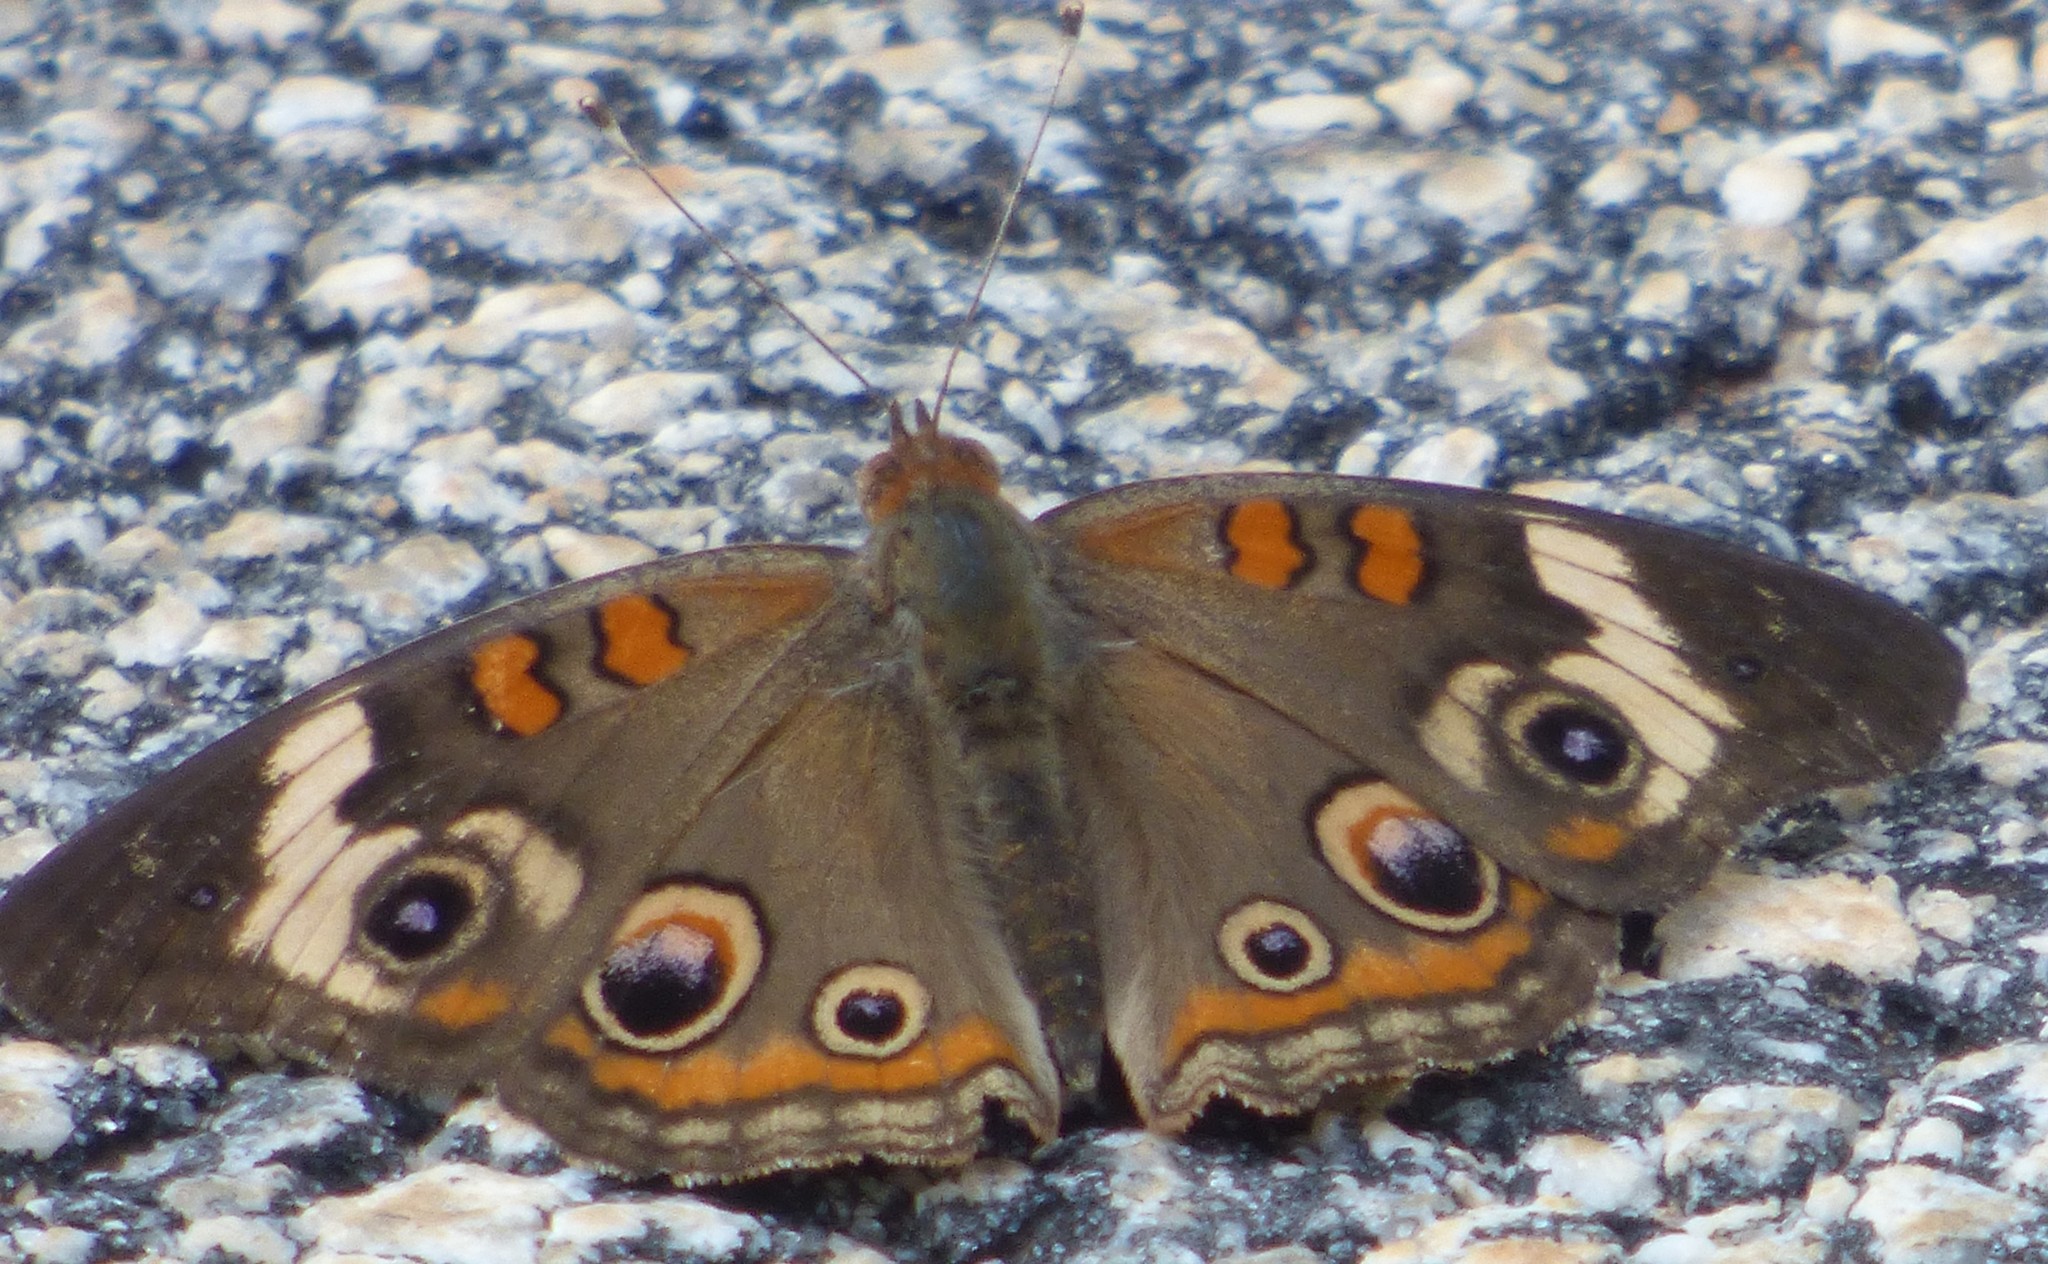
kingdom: Animalia
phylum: Arthropoda
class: Insecta
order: Lepidoptera
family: Nymphalidae
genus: Junonia
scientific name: Junonia coenia
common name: Common buckeye
